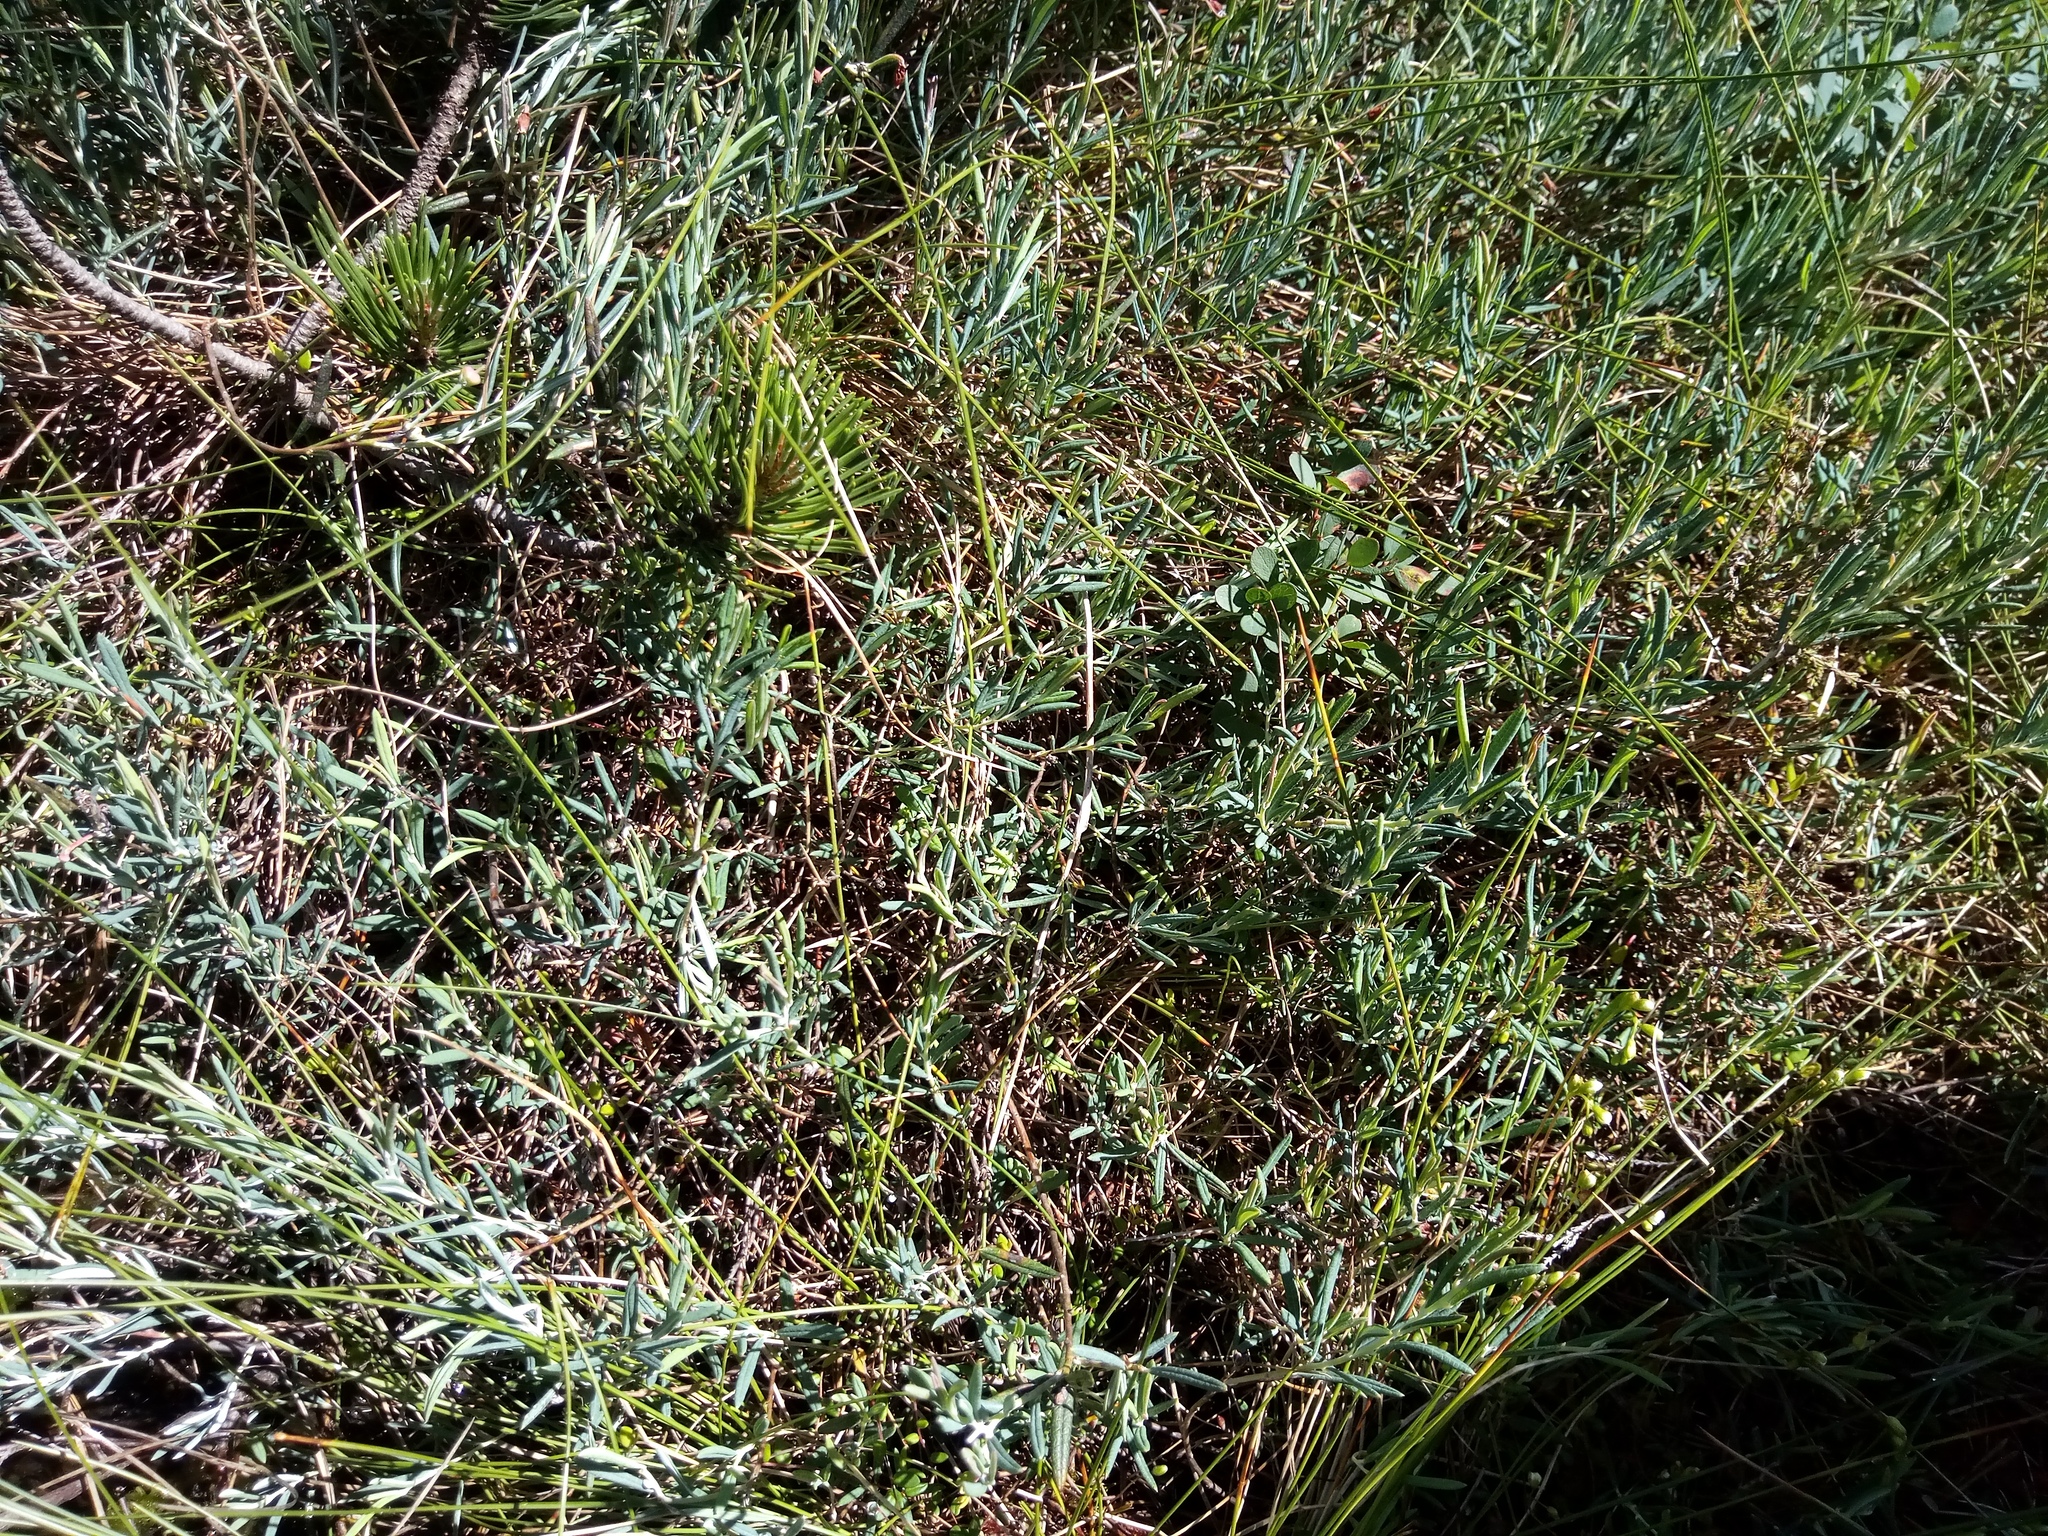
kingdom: Plantae
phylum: Tracheophyta
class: Magnoliopsida
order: Ericales
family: Ericaceae
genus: Andromeda
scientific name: Andromeda polifolia
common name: Bog-rosemary
